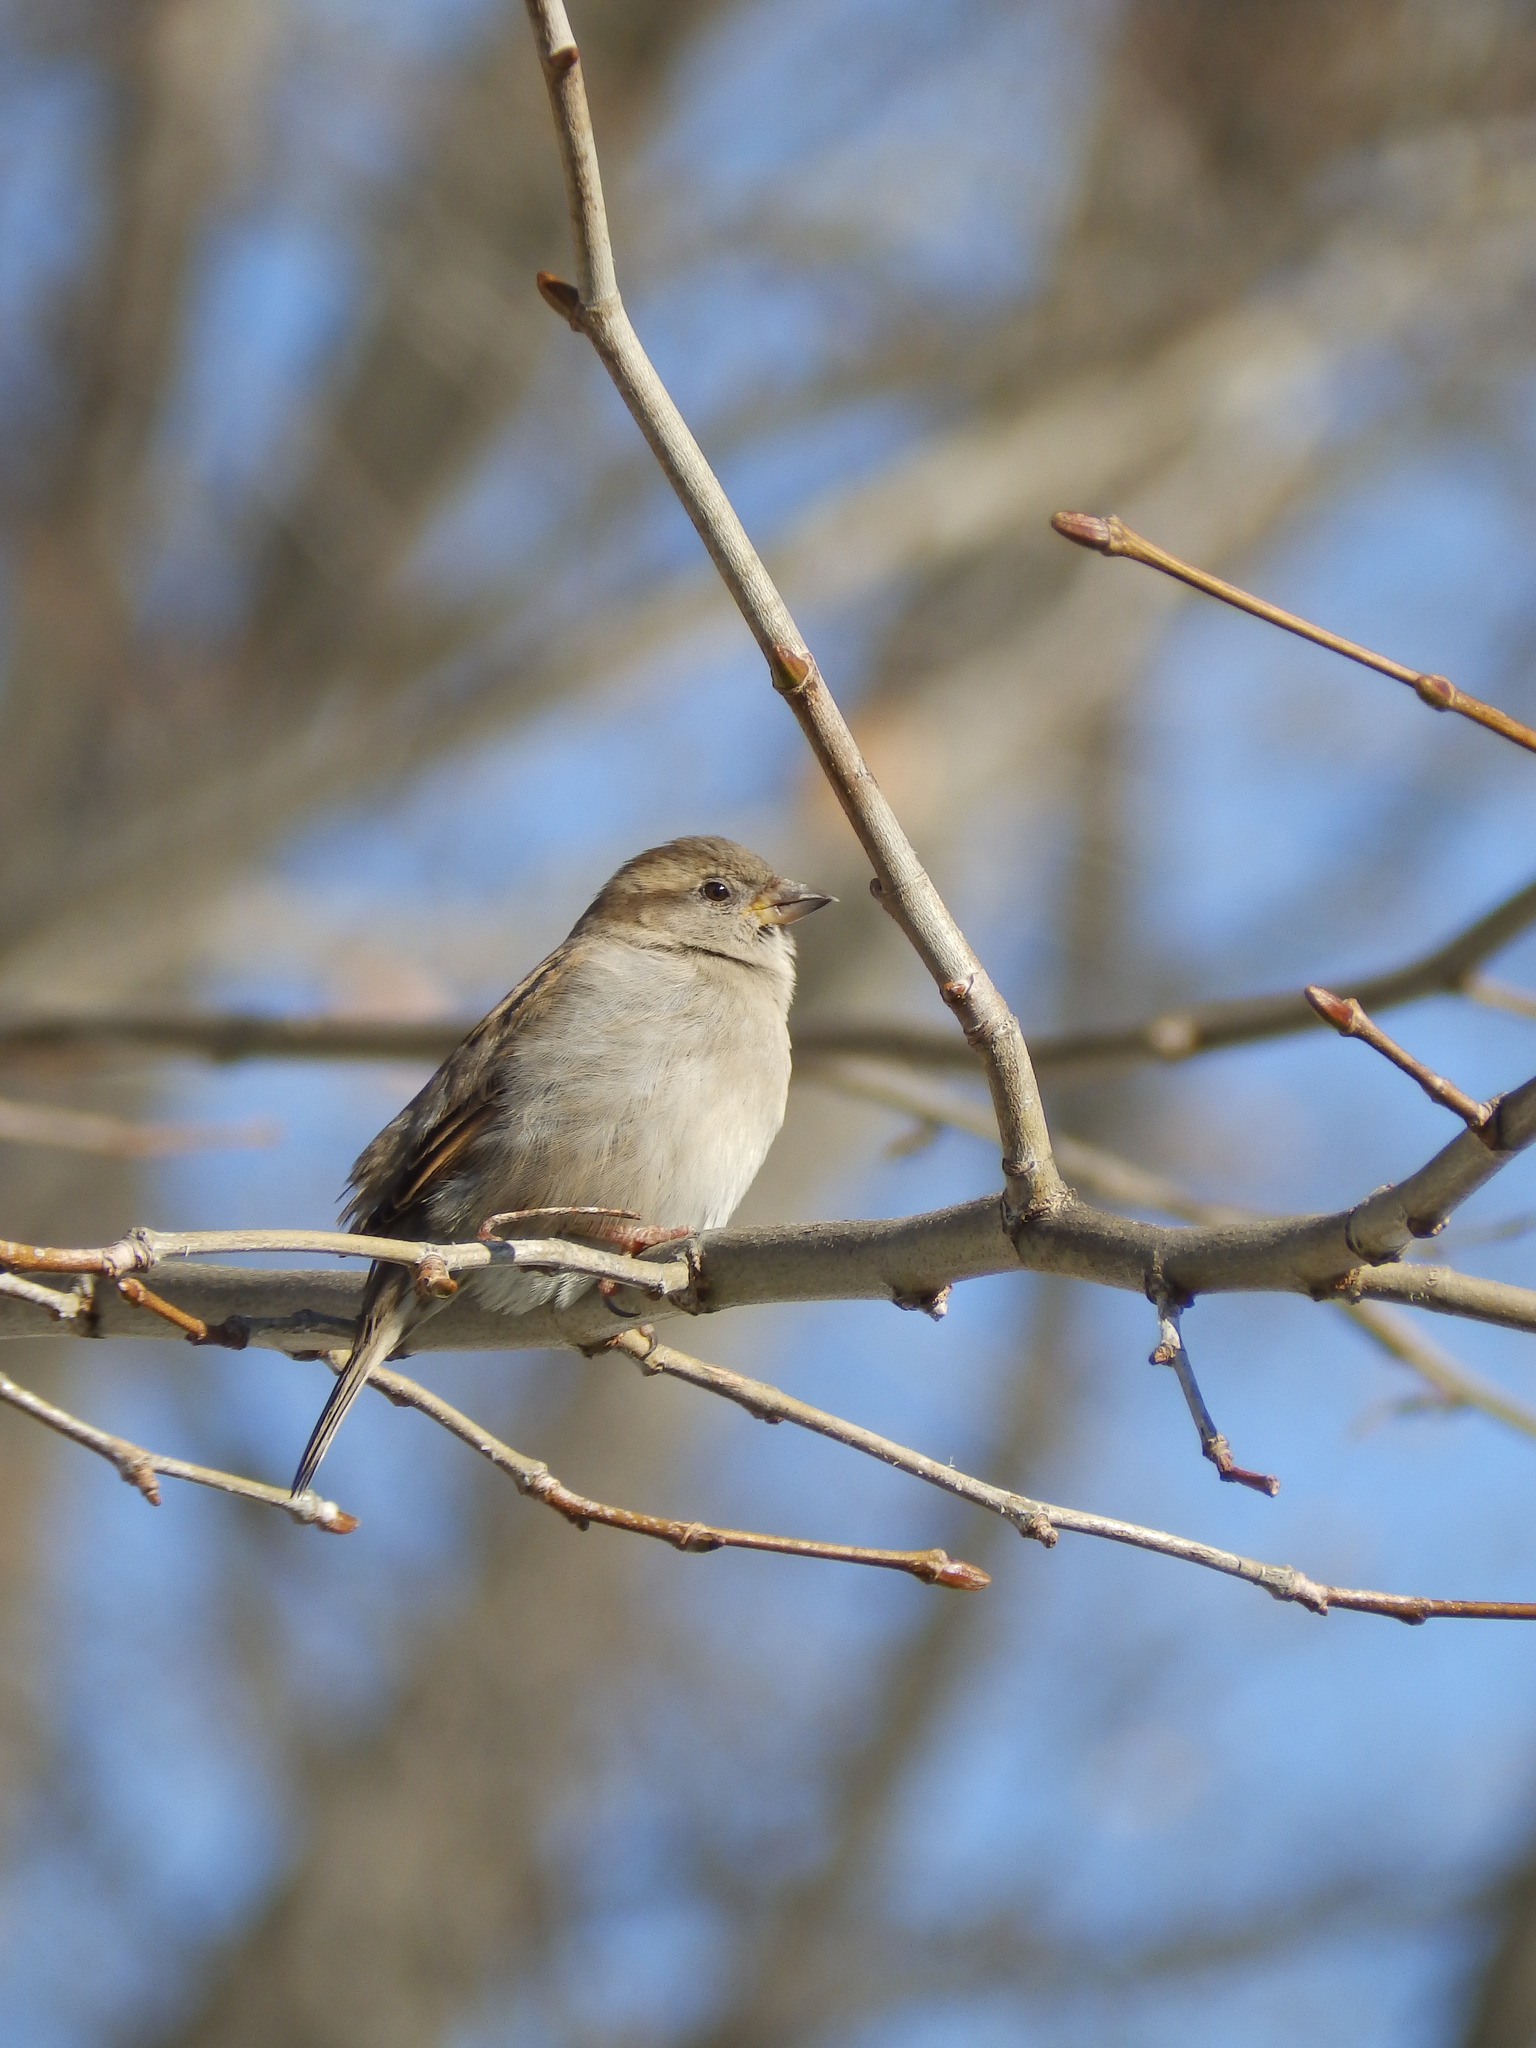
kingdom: Animalia
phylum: Chordata
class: Aves
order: Passeriformes
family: Passeridae
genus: Passer
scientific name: Passer domesticus
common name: House sparrow
